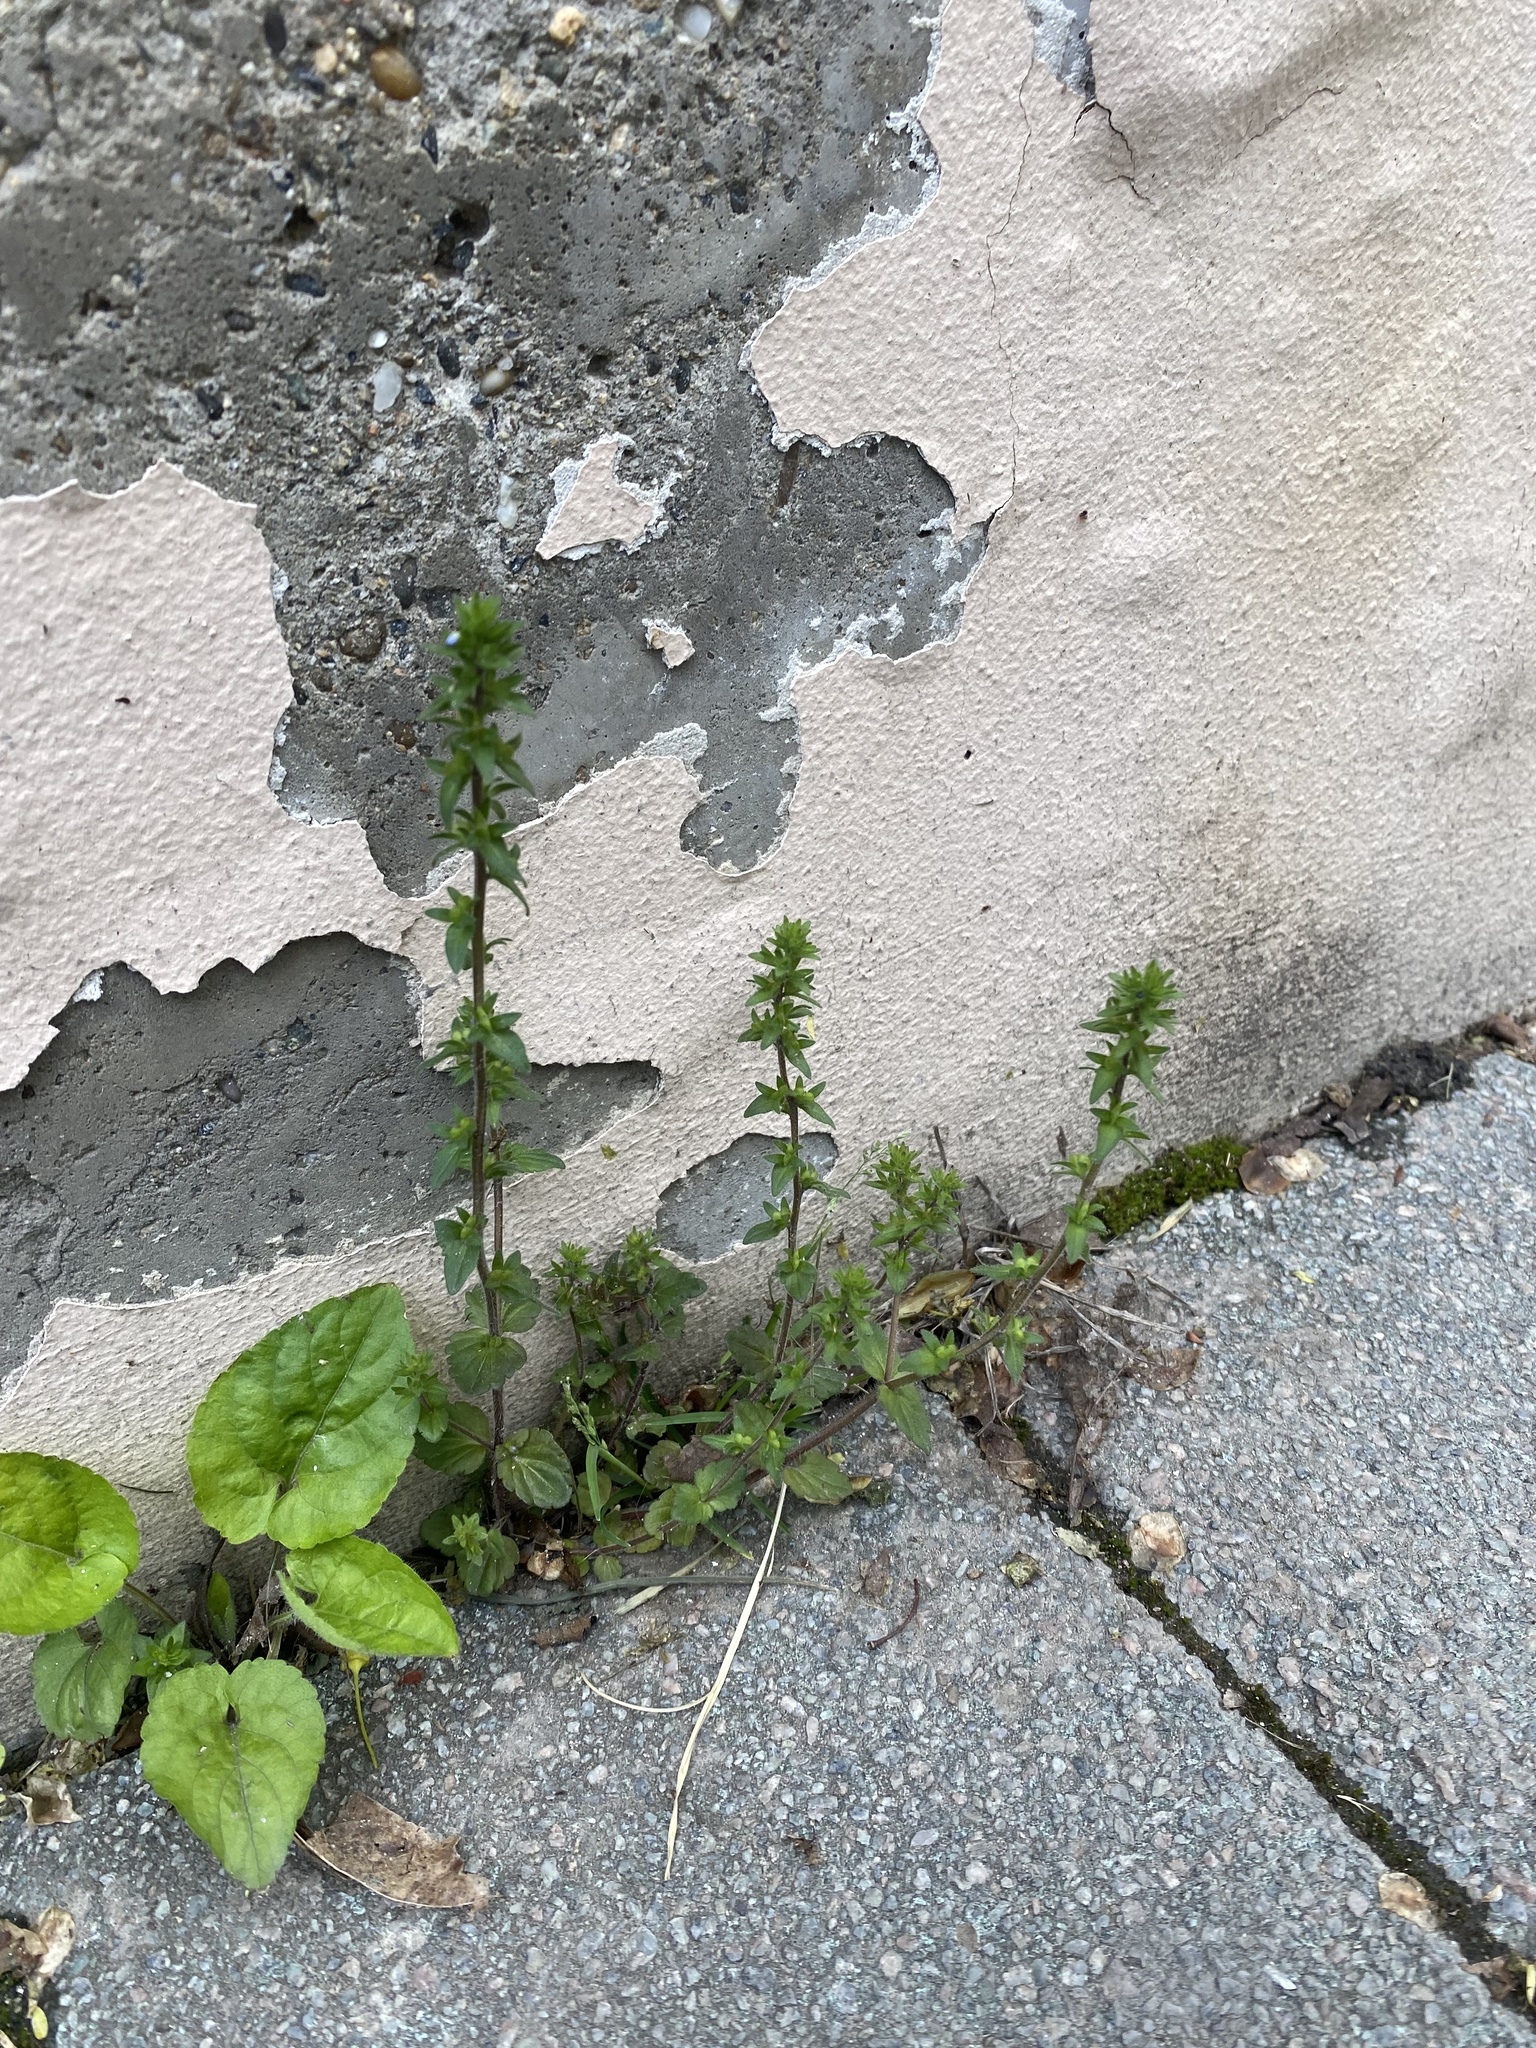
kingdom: Plantae
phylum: Tracheophyta
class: Magnoliopsida
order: Lamiales
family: Plantaginaceae
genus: Veronica
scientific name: Veronica arvensis
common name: Corn speedwell
